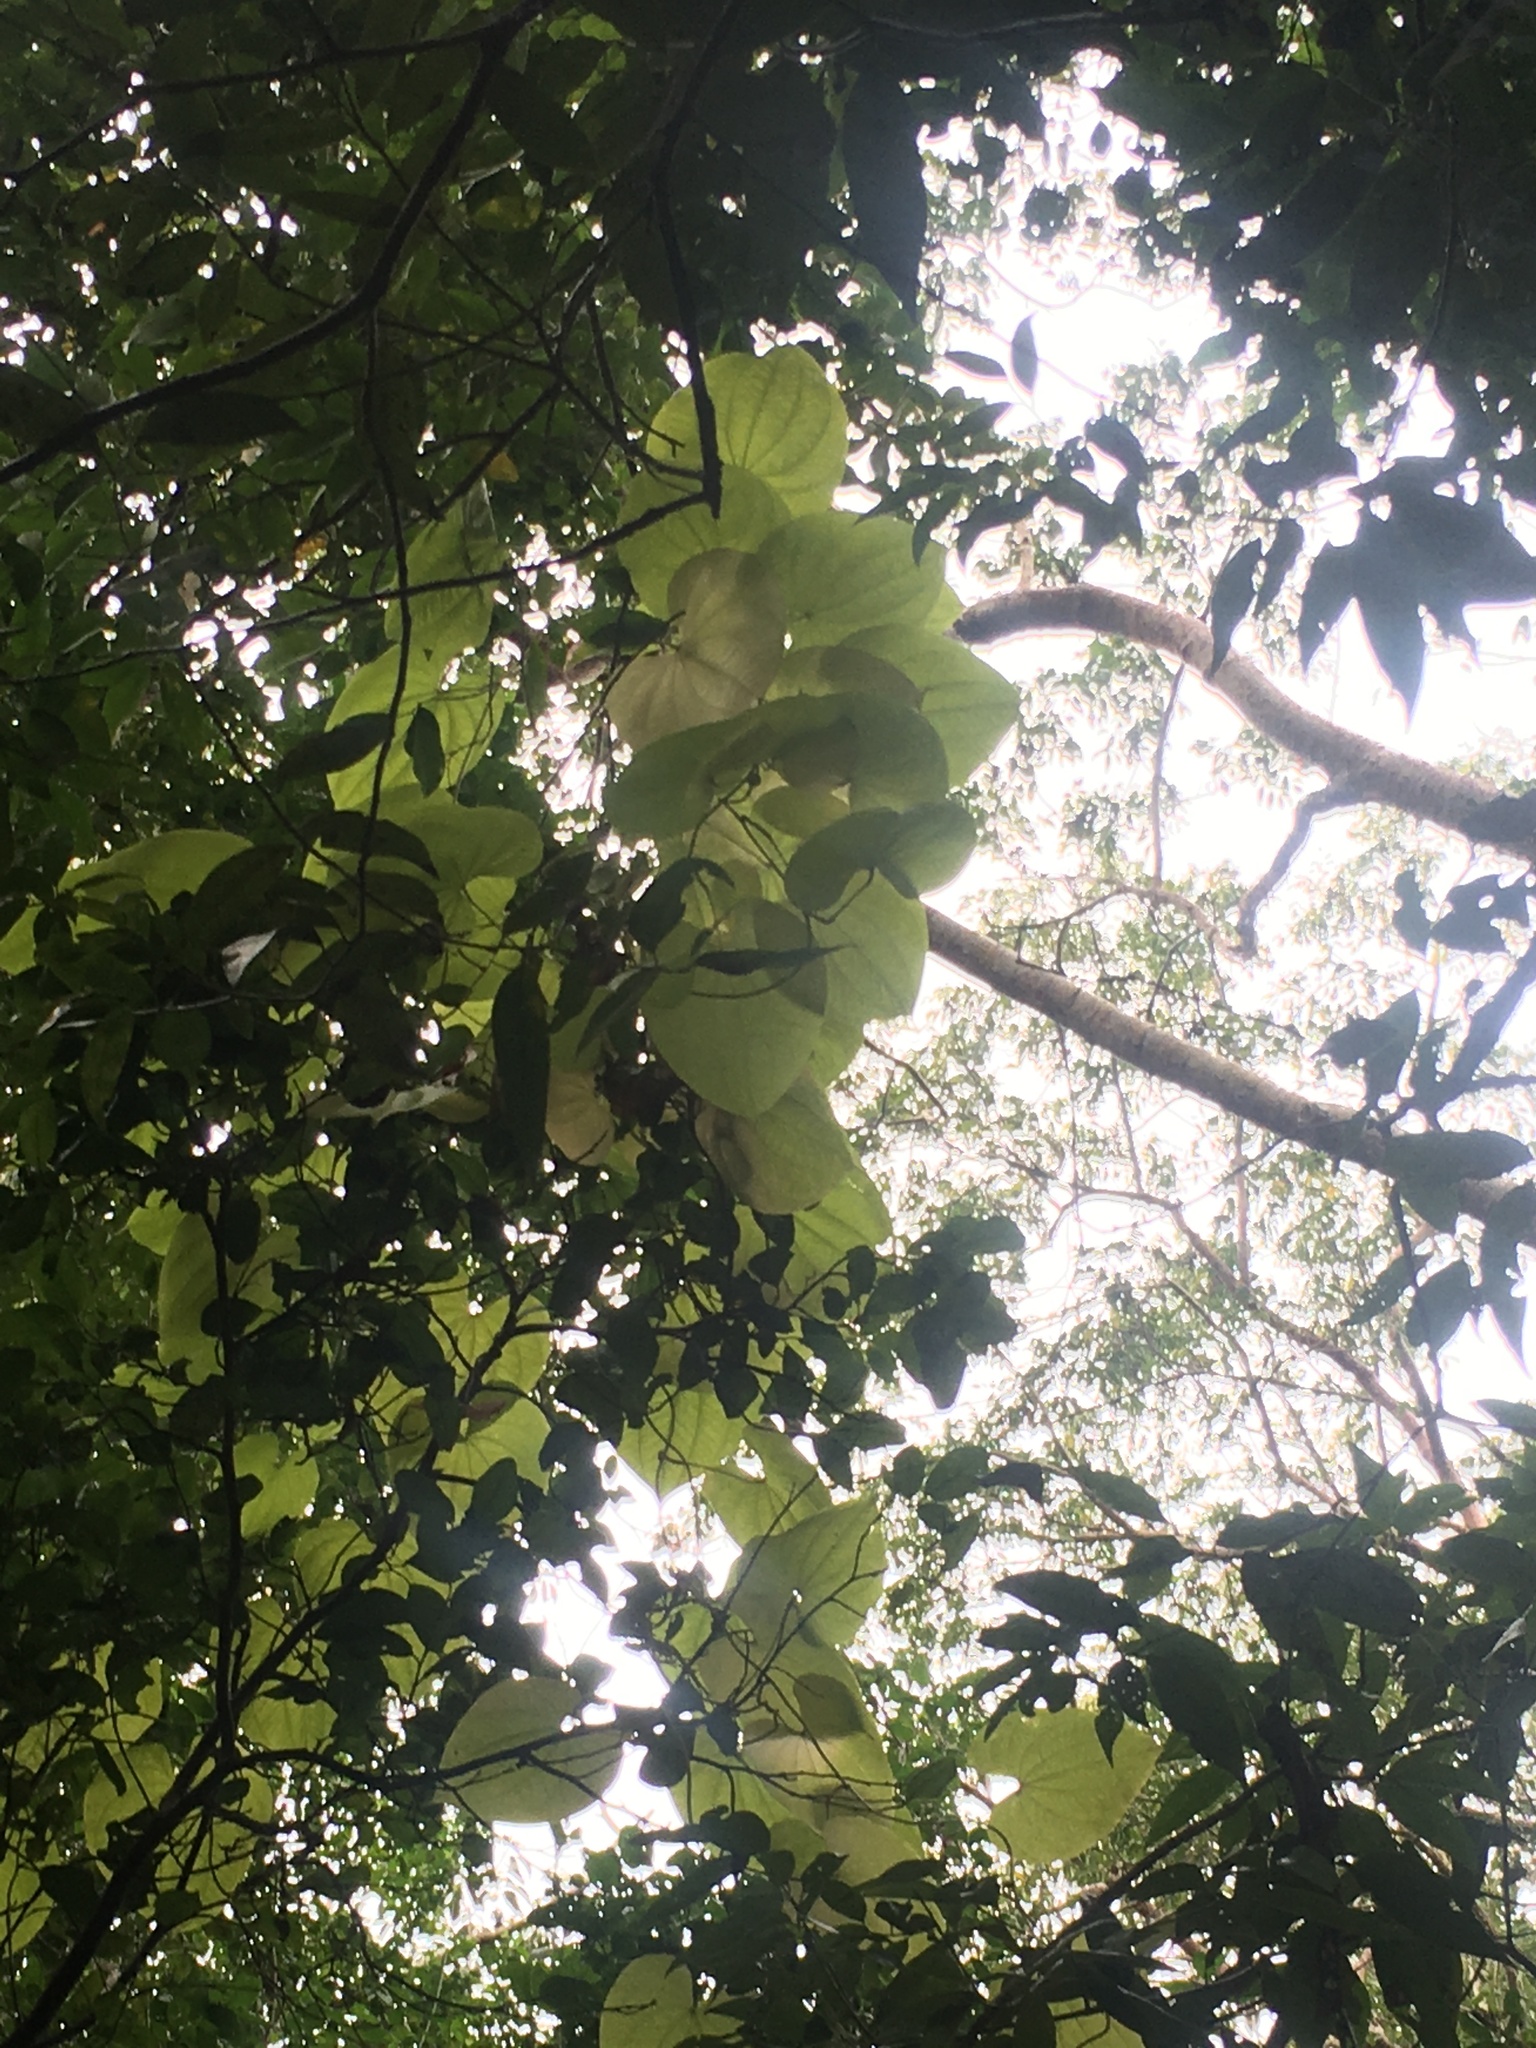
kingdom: Plantae
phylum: Tracheophyta
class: Liliopsida
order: Dioscoreales
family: Dioscoreaceae
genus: Dioscorea
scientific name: Dioscorea bulbifera
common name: Air yam
